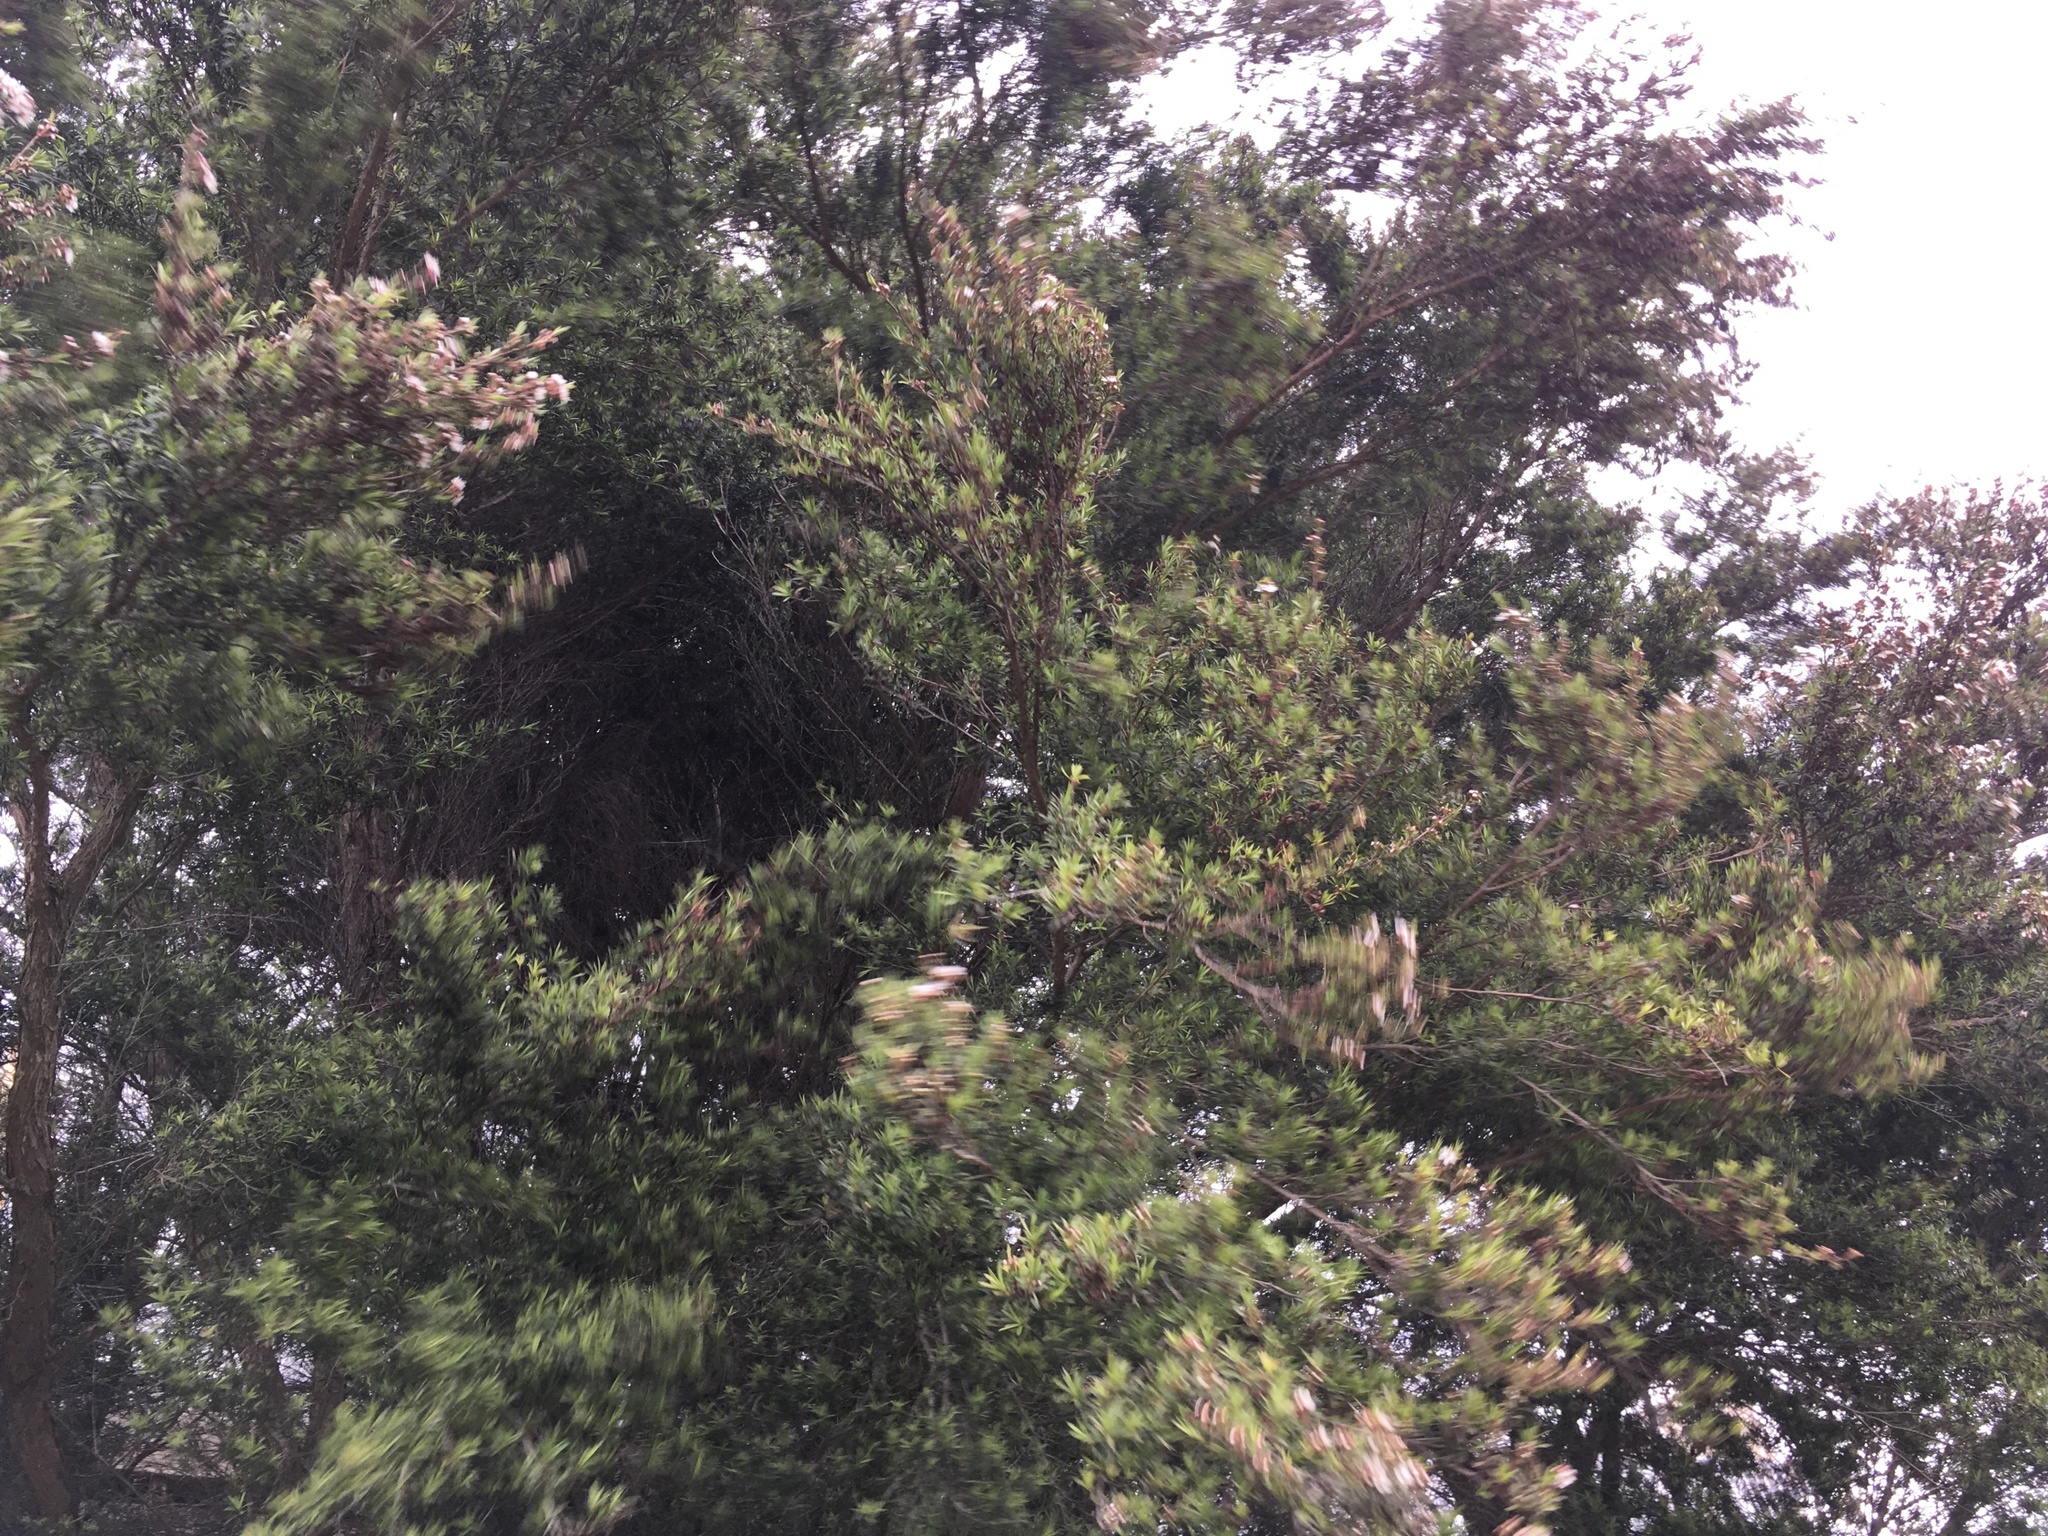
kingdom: Plantae
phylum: Tracheophyta
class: Magnoliopsida
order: Myrtales
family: Myrtaceae
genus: Kunzea
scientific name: Kunzea robusta
